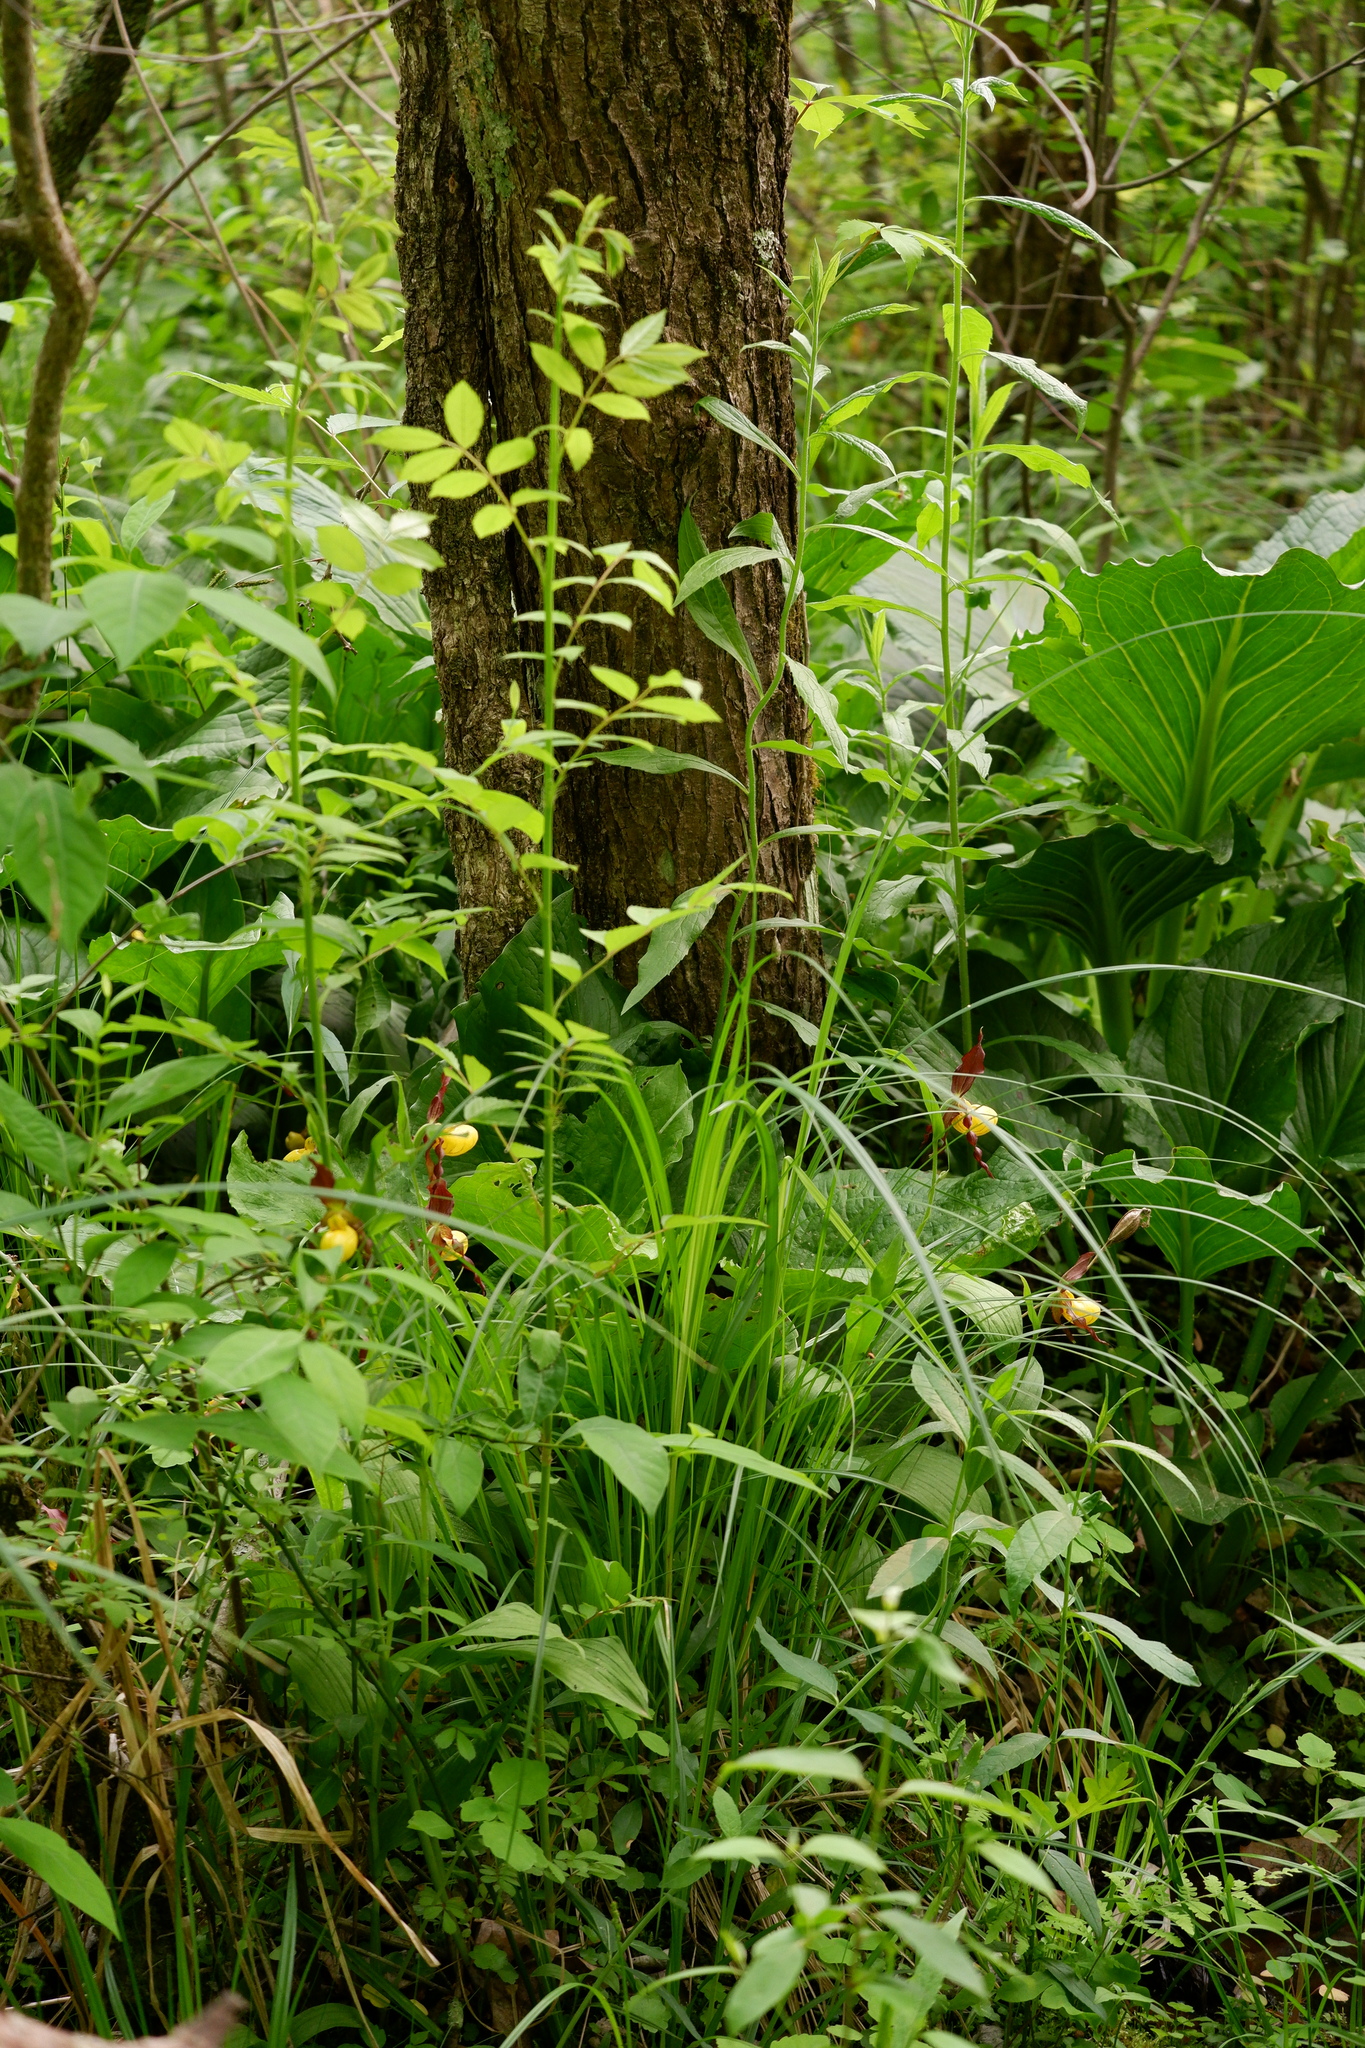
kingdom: Plantae
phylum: Tracheophyta
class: Liliopsida
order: Asparagales
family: Orchidaceae
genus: Cypripedium
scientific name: Cypripedium parviflorum
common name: American yellow lady's-slipper
